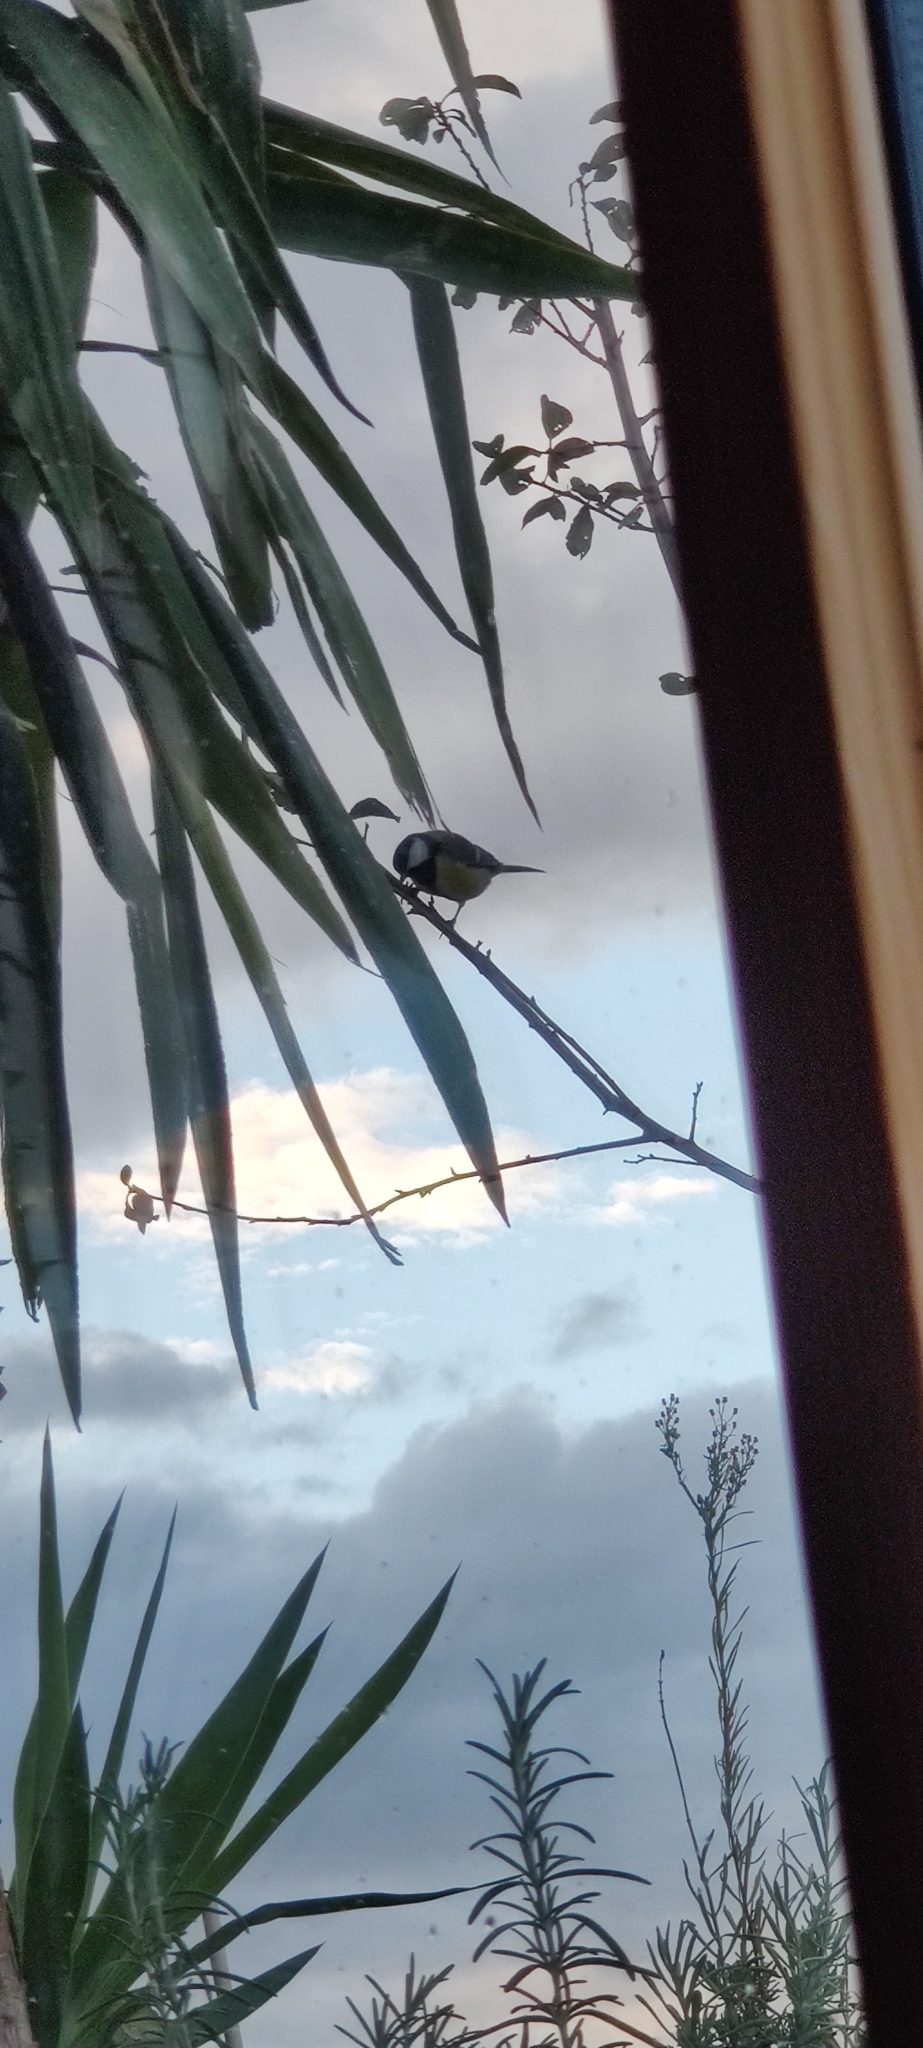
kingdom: Animalia
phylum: Chordata
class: Aves
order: Passeriformes
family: Paridae
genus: Parus
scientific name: Parus major
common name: Great tit
